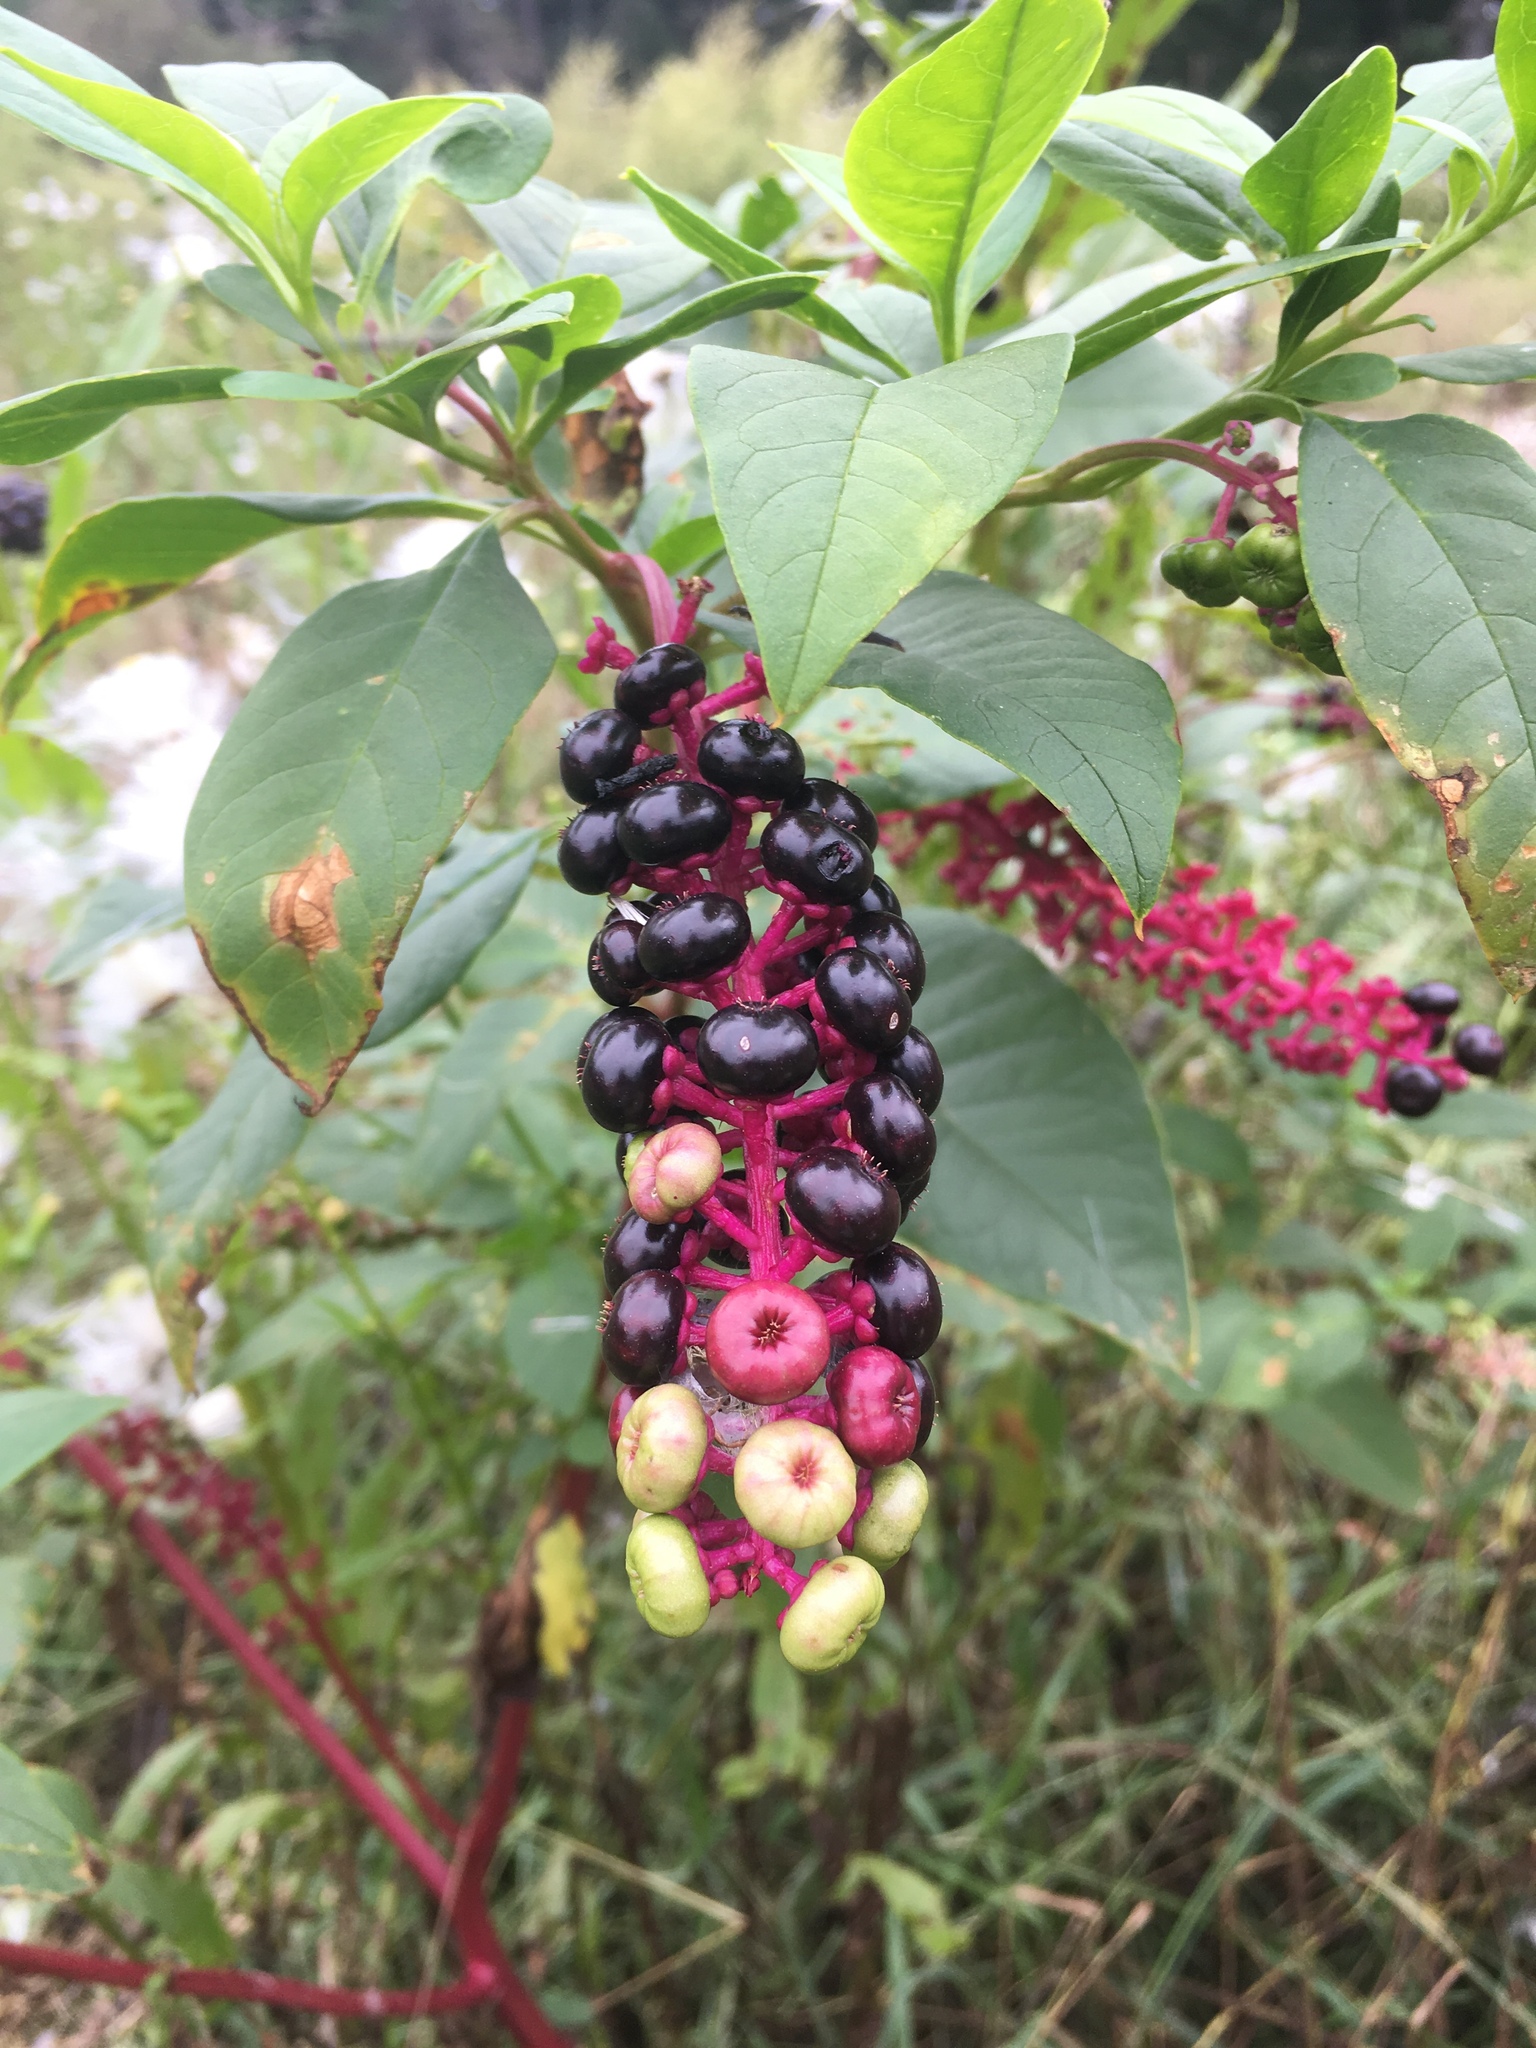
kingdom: Plantae
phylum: Tracheophyta
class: Magnoliopsida
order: Caryophyllales
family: Phytolaccaceae
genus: Phytolacca
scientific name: Phytolacca americana
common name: American pokeweed
